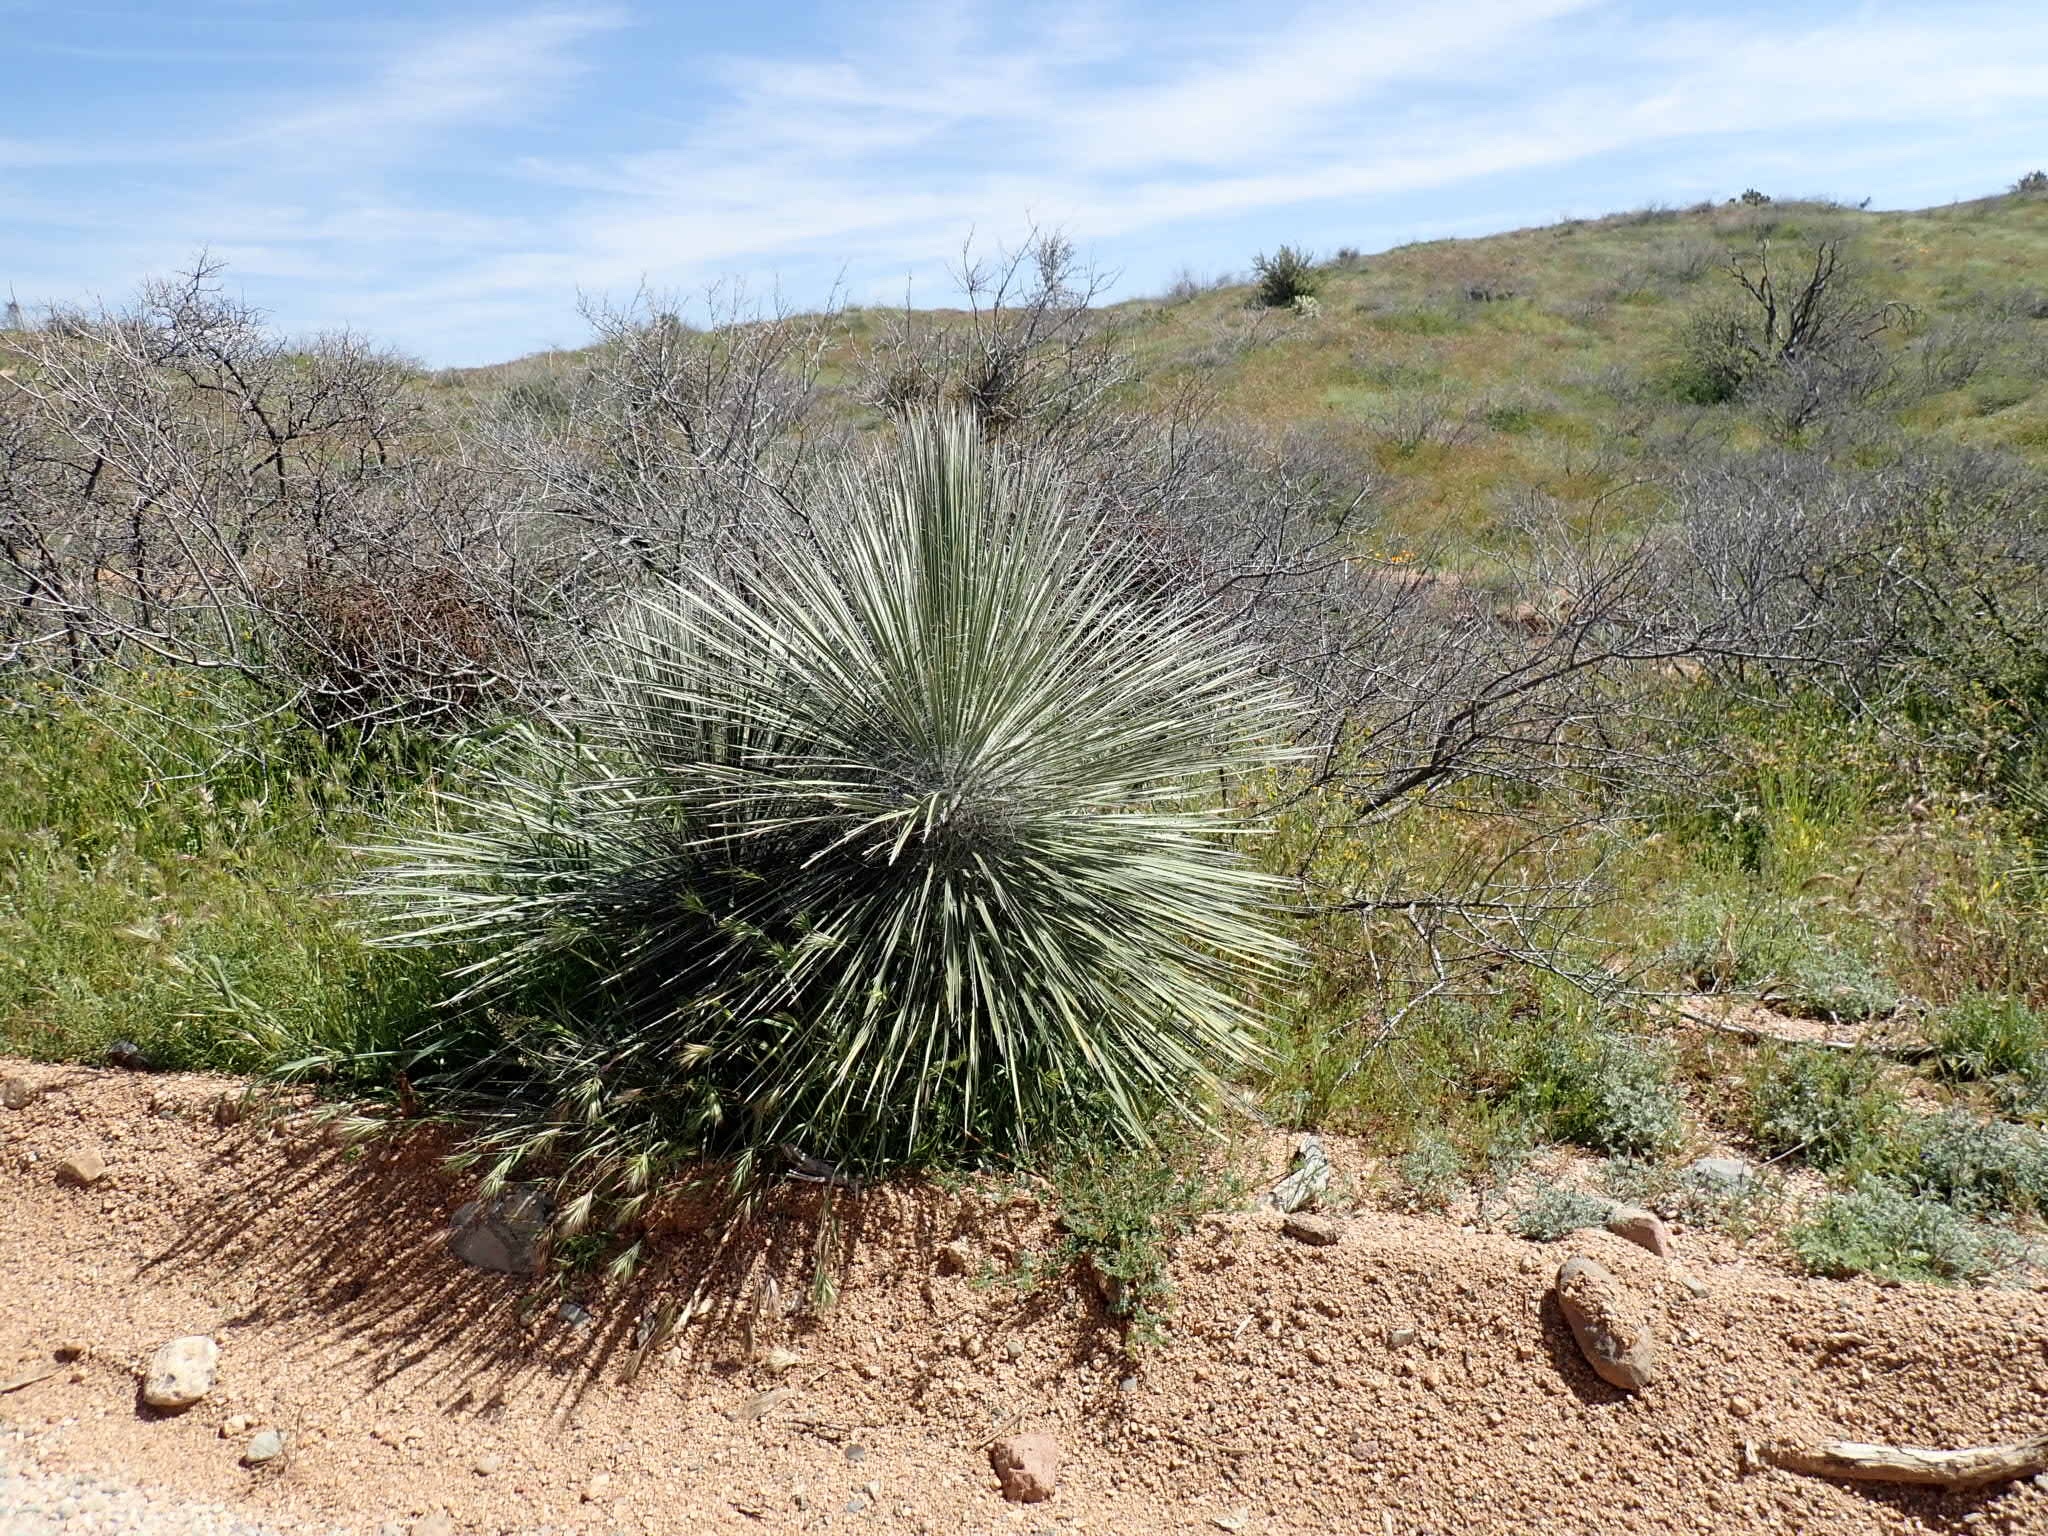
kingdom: Plantae
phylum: Tracheophyta
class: Liliopsida
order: Asparagales
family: Asparagaceae
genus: Yucca
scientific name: Yucca elata
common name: Palmella
